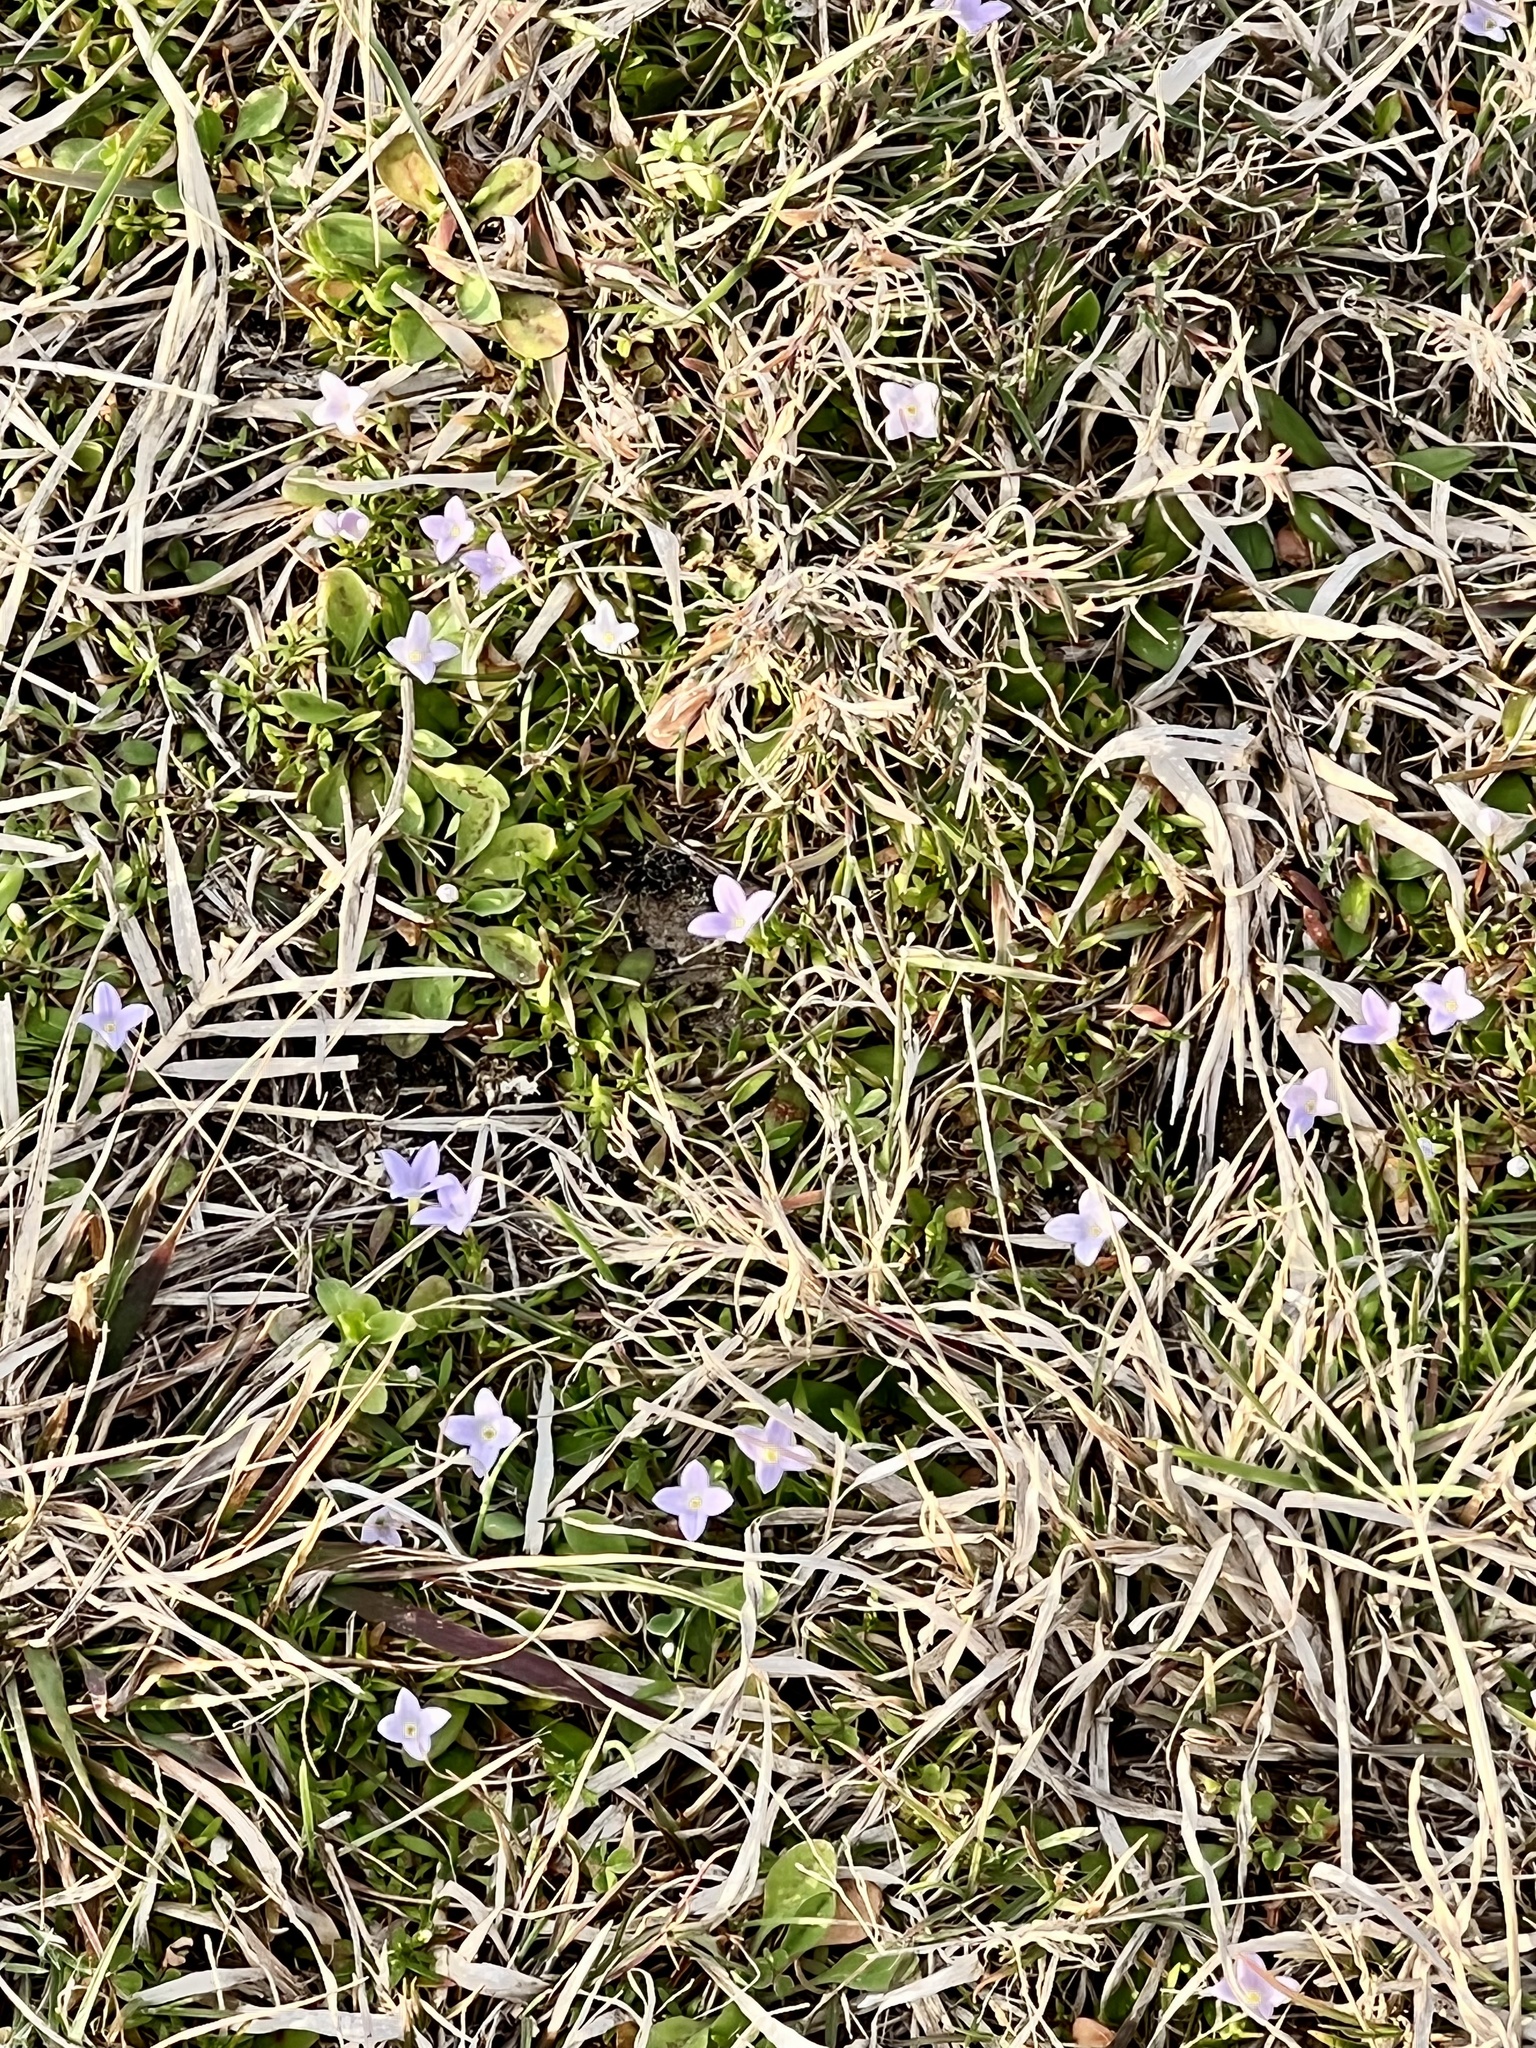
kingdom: Plantae
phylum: Tracheophyta
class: Magnoliopsida
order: Gentianales
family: Rubiaceae
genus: Houstonia
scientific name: Houstonia pusilla
